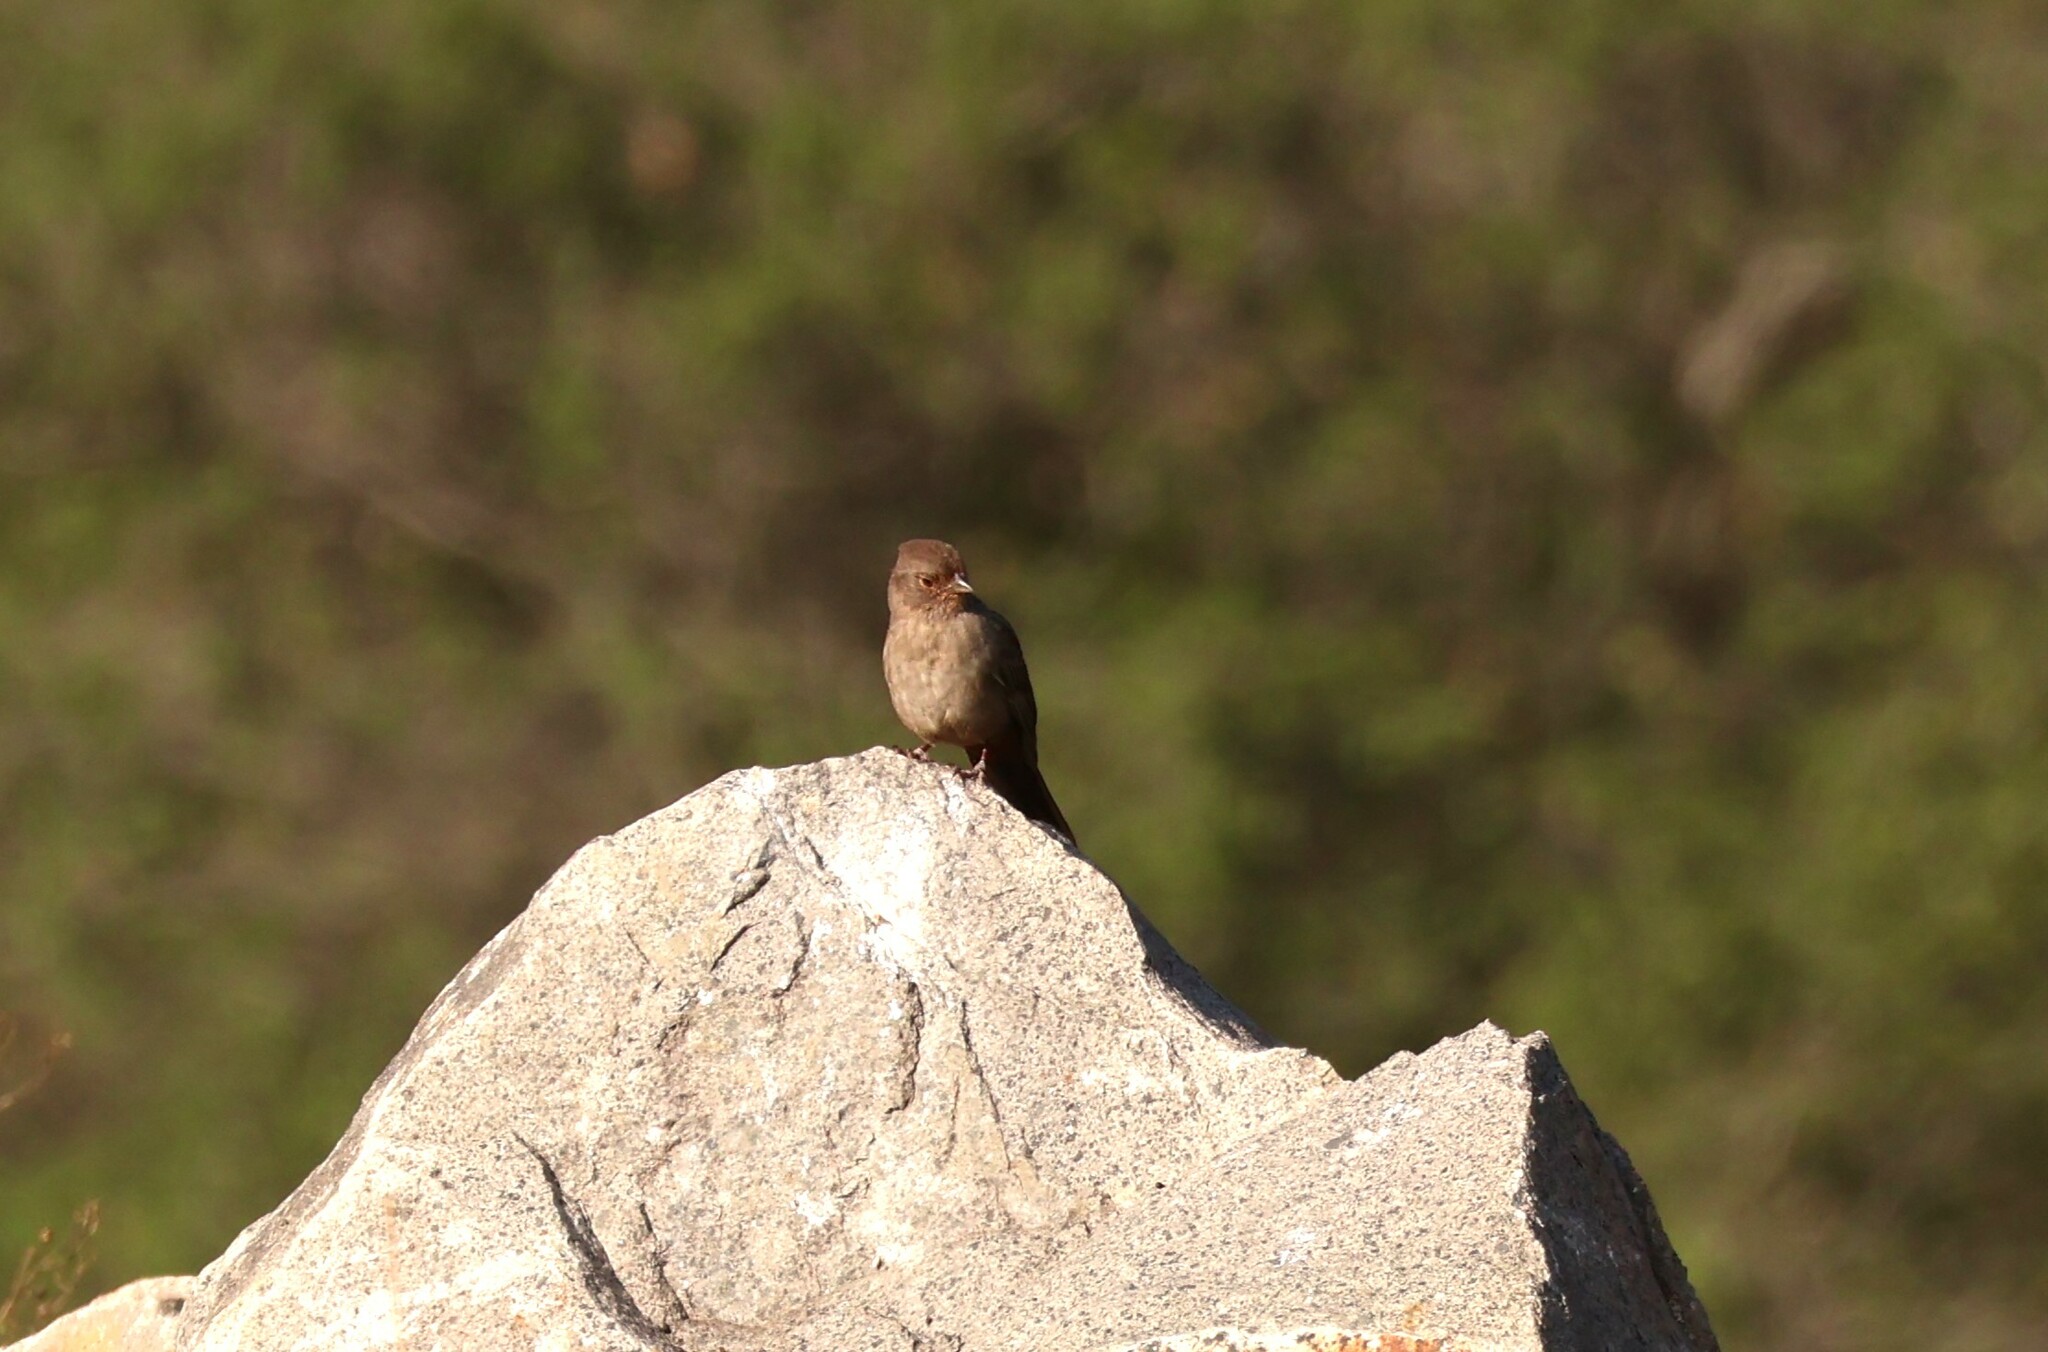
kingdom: Animalia
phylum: Chordata
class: Aves
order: Passeriformes
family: Passerellidae
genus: Melozone
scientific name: Melozone crissalis
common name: California towhee
